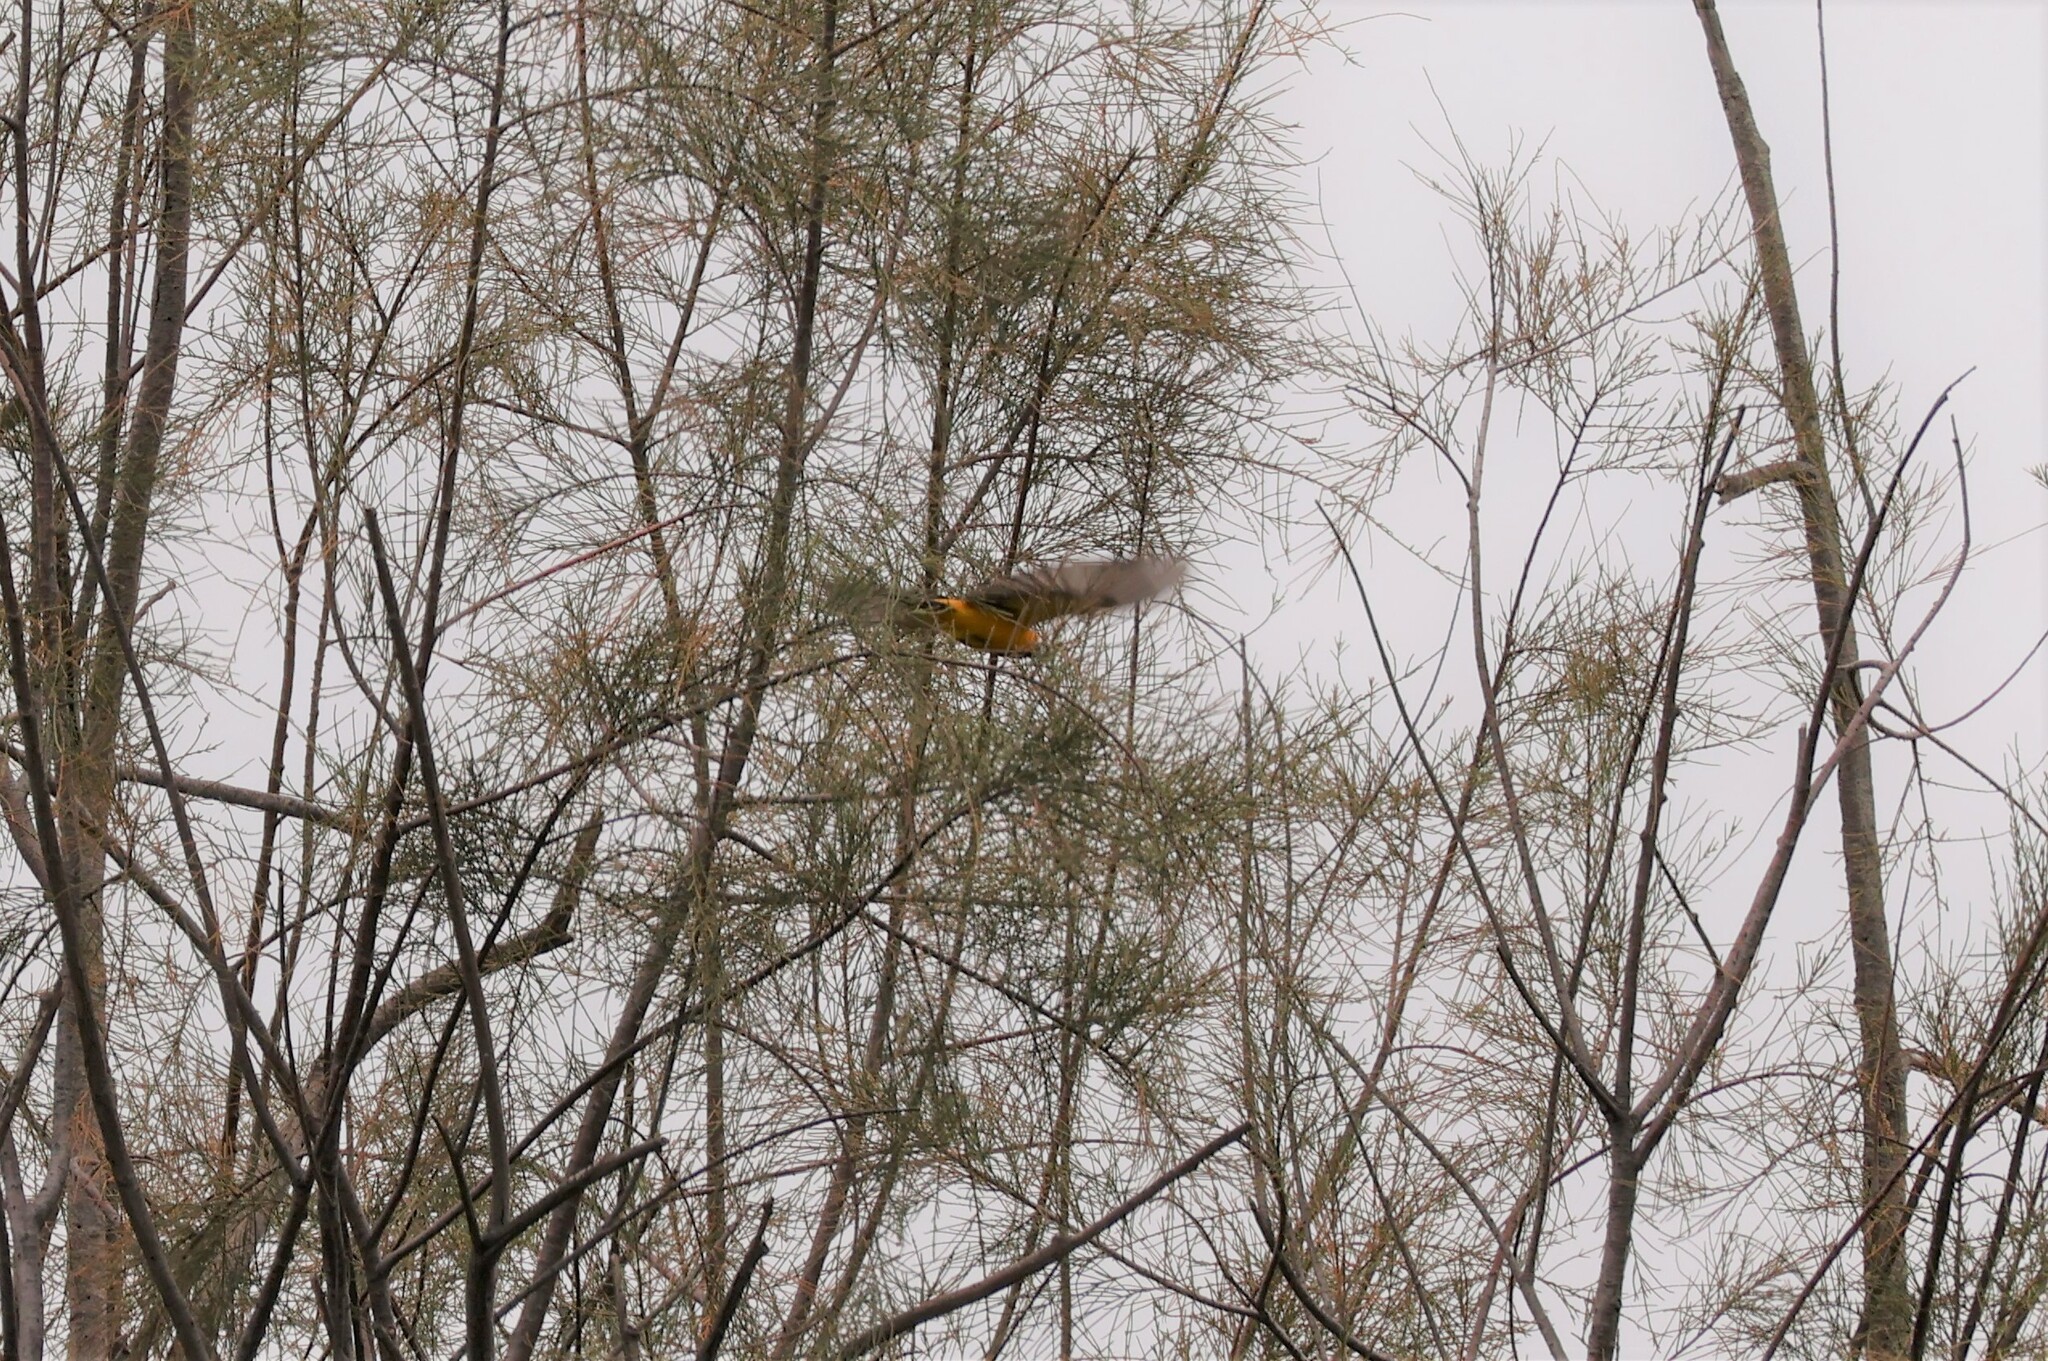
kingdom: Animalia
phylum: Chordata
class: Aves
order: Passeriformes
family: Icteridae
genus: Icterus
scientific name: Icterus cucullatus
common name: Hooded oriole
